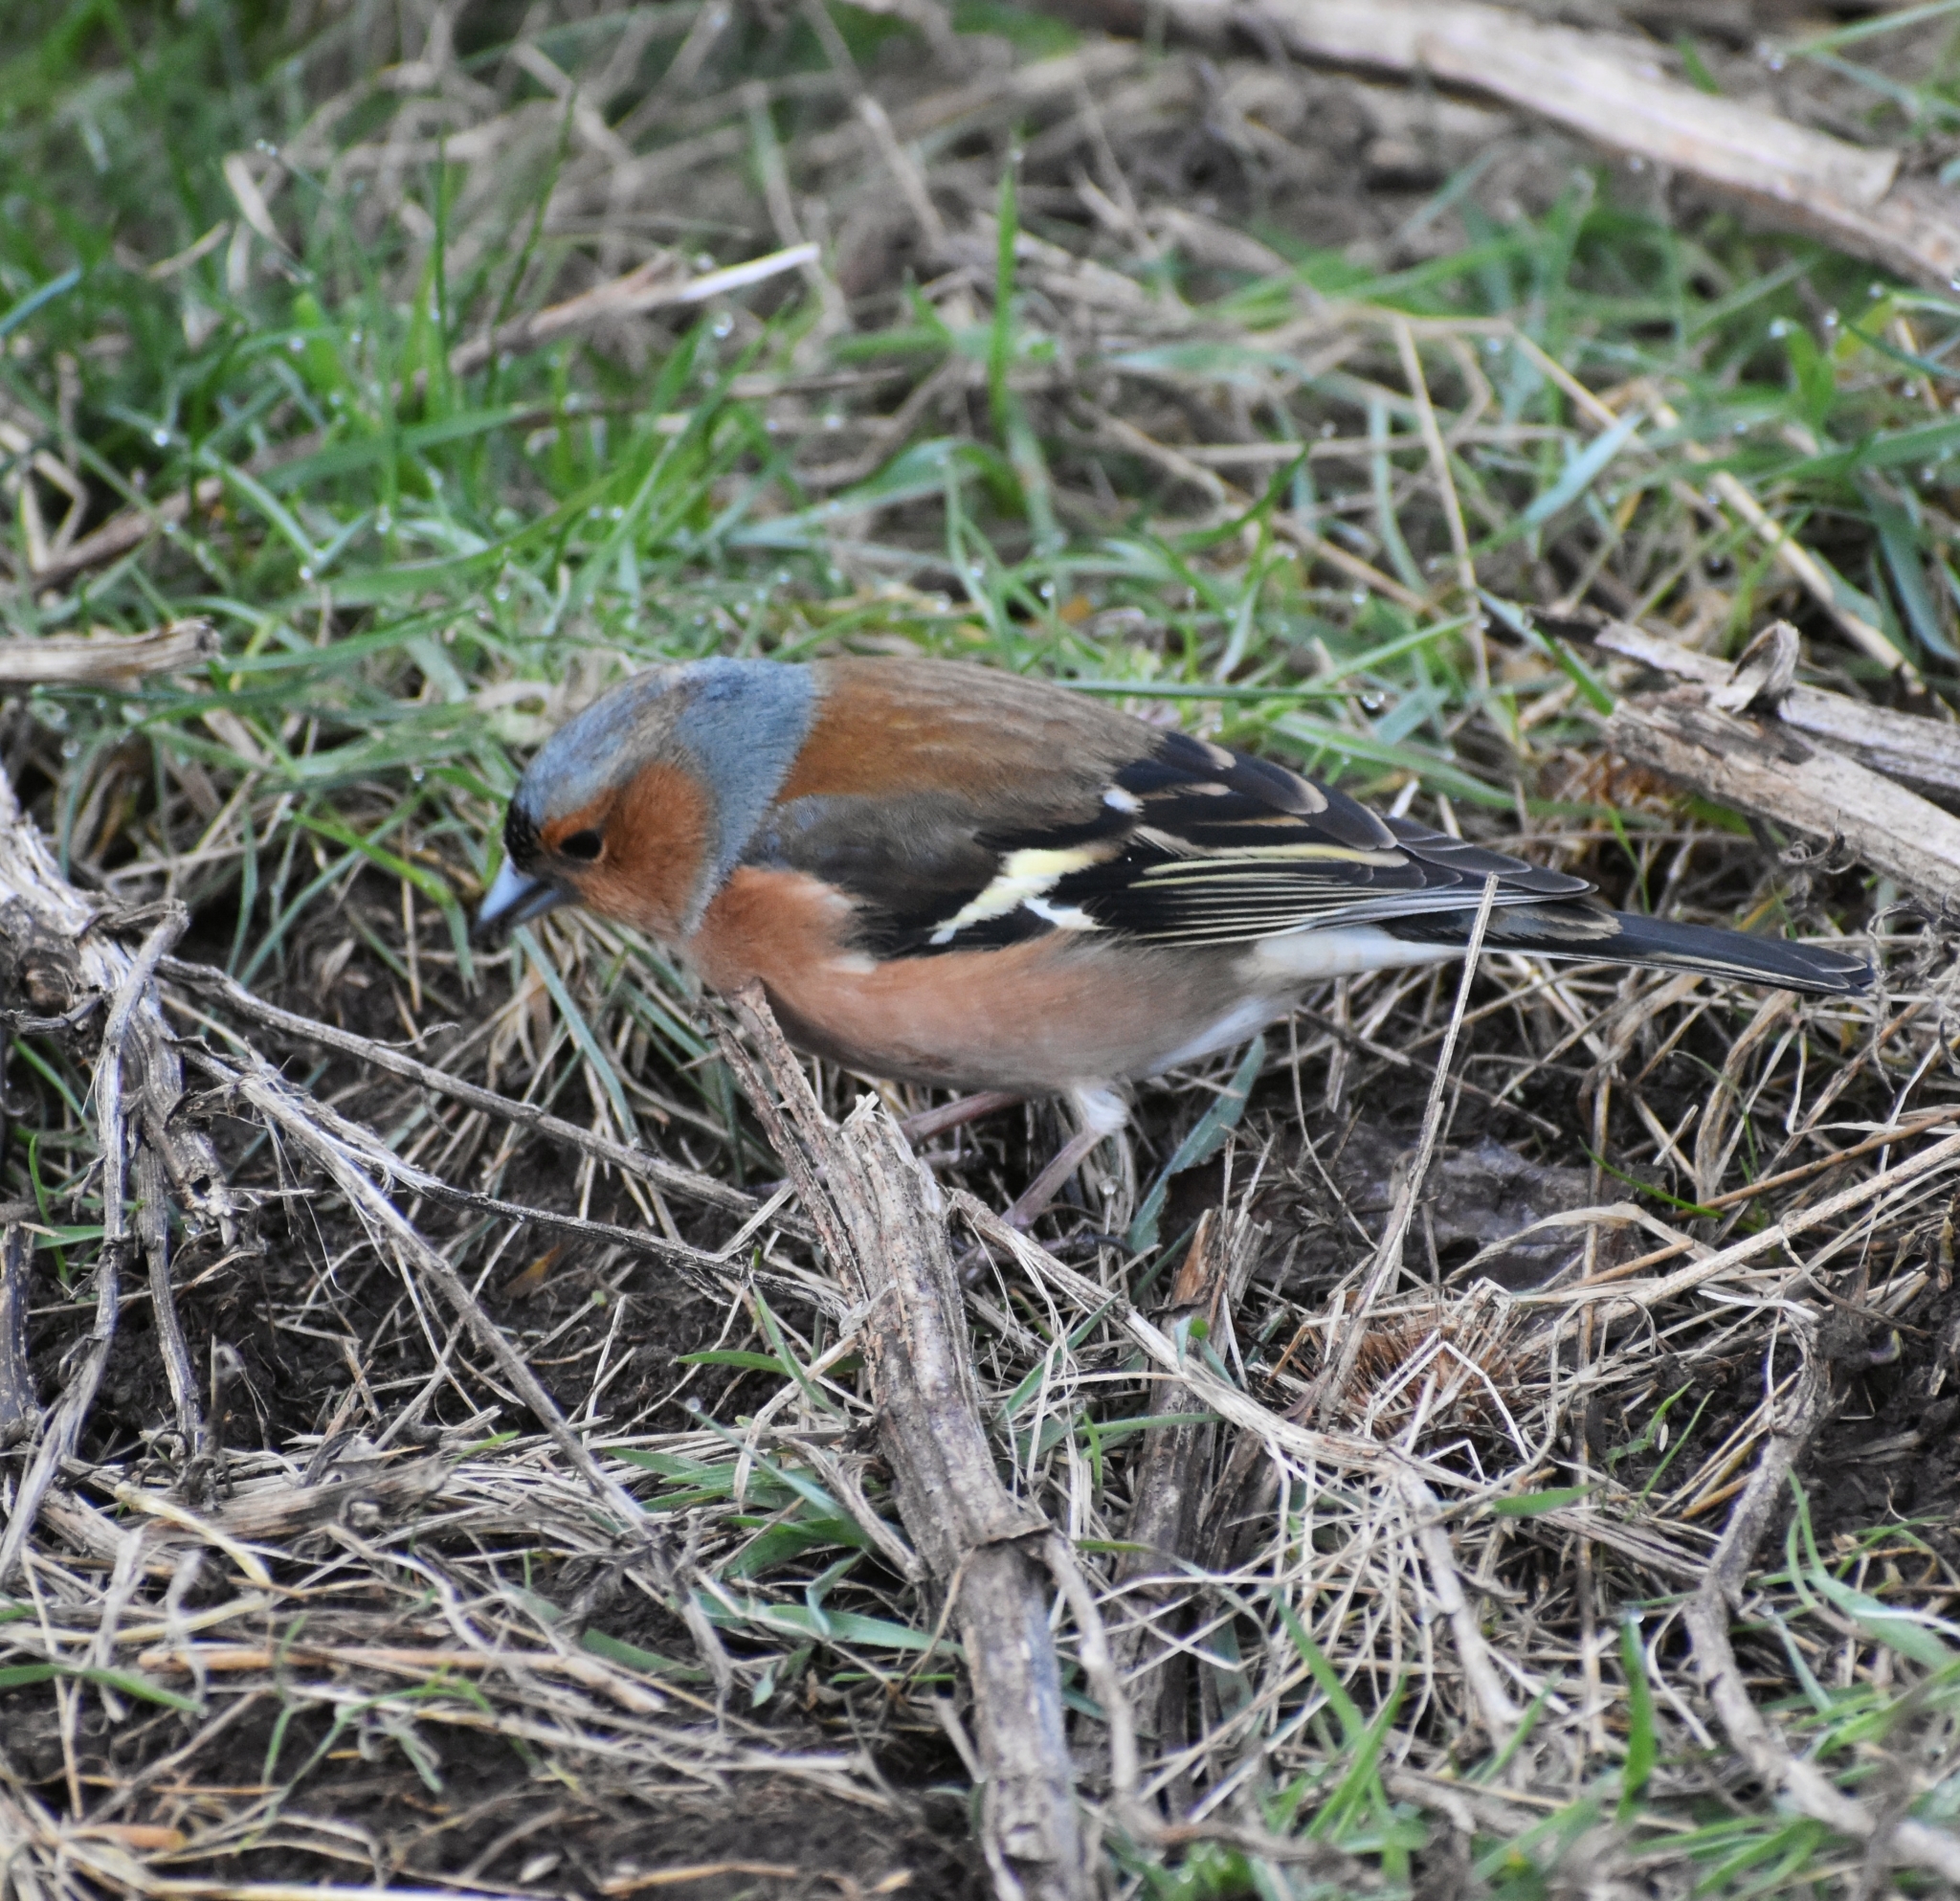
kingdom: Animalia
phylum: Chordata
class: Aves
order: Passeriformes
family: Fringillidae
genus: Fringilla
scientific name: Fringilla coelebs
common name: Common chaffinch
